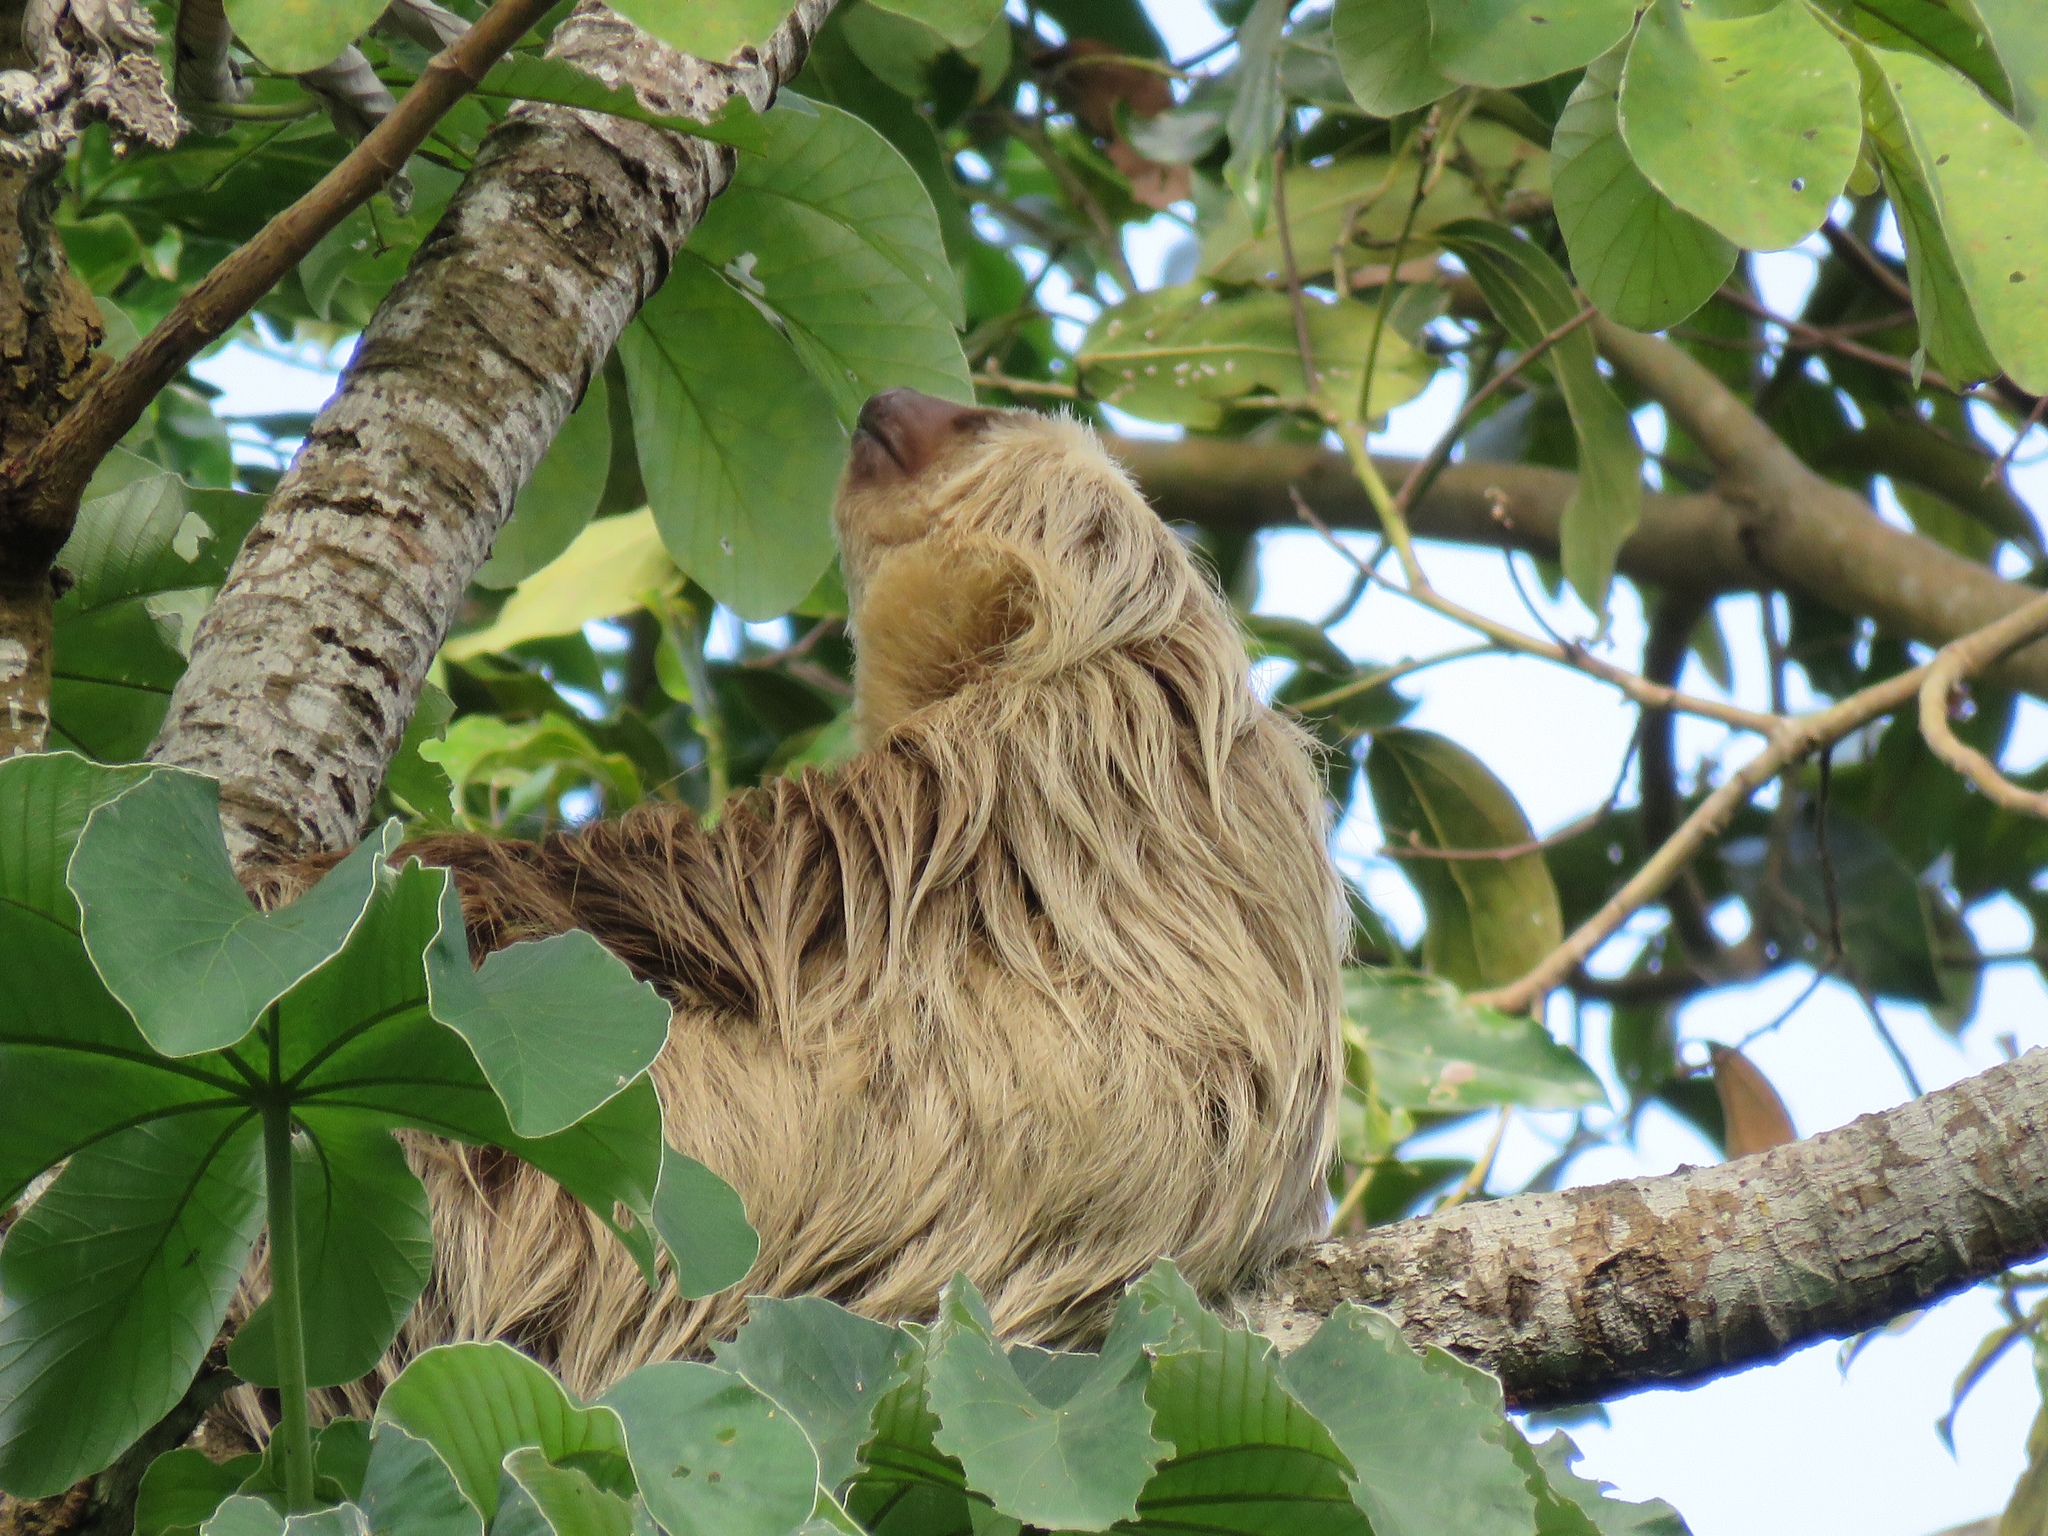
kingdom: Animalia
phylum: Chordata
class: Mammalia
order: Pilosa
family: Megalonychidae
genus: Choloepus
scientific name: Choloepus hoffmanni
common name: Hoffmann's two-toed sloth
